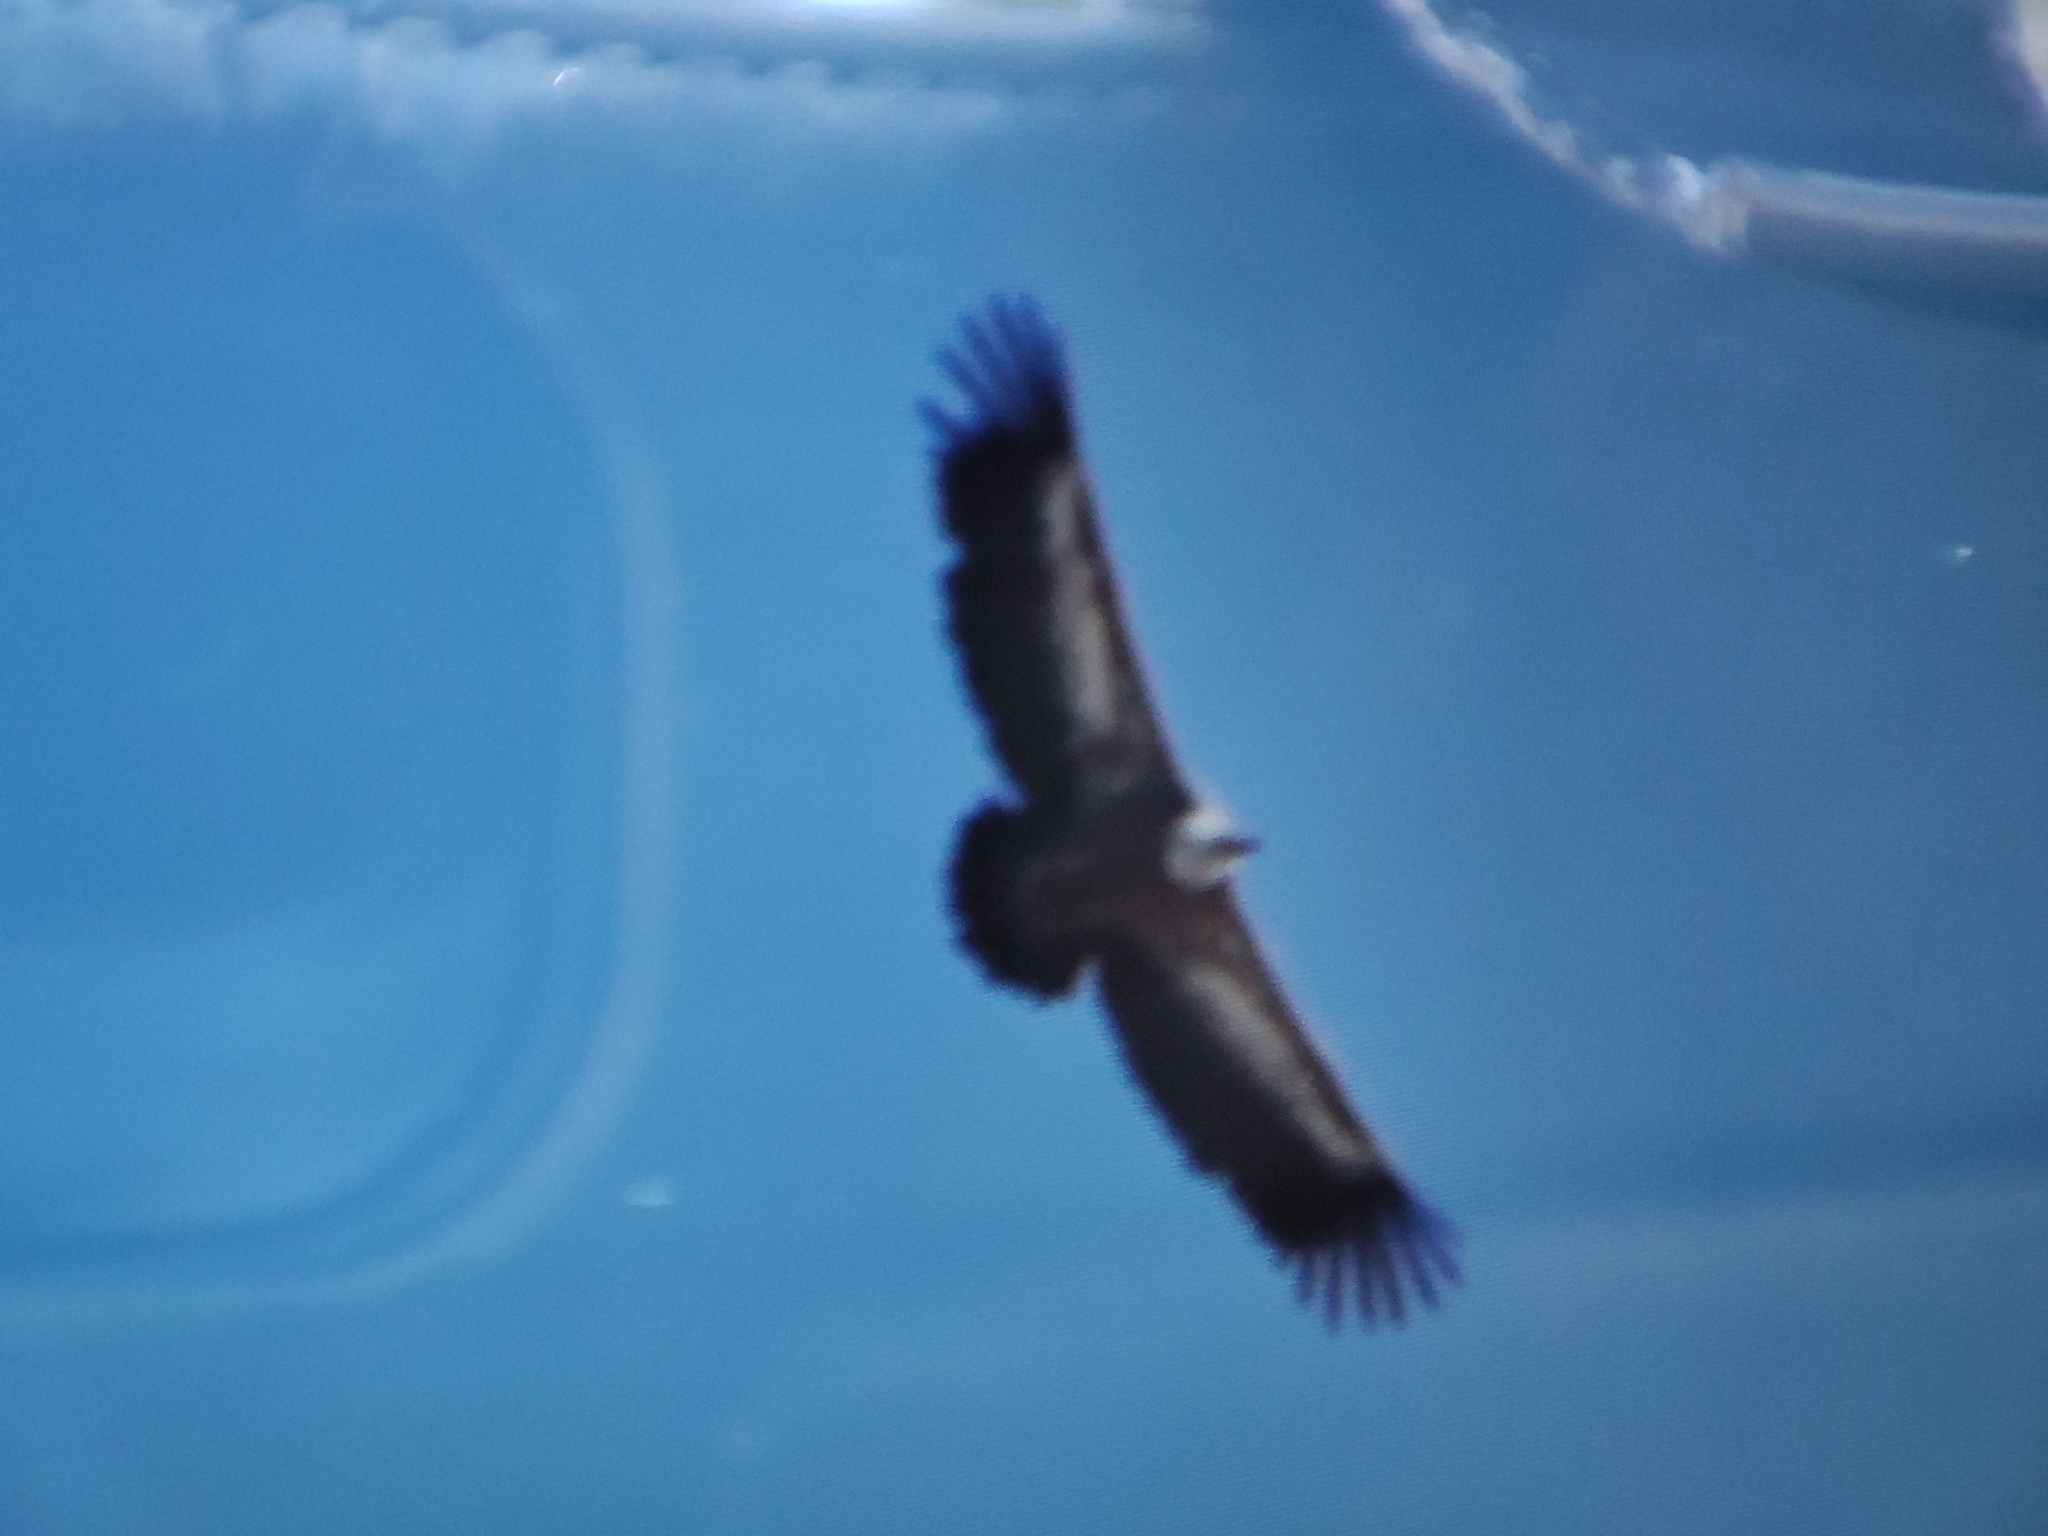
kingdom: Animalia
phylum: Chordata
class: Aves
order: Accipitriformes
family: Accipitridae
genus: Gyps
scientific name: Gyps fulvus
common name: Griffon vulture
